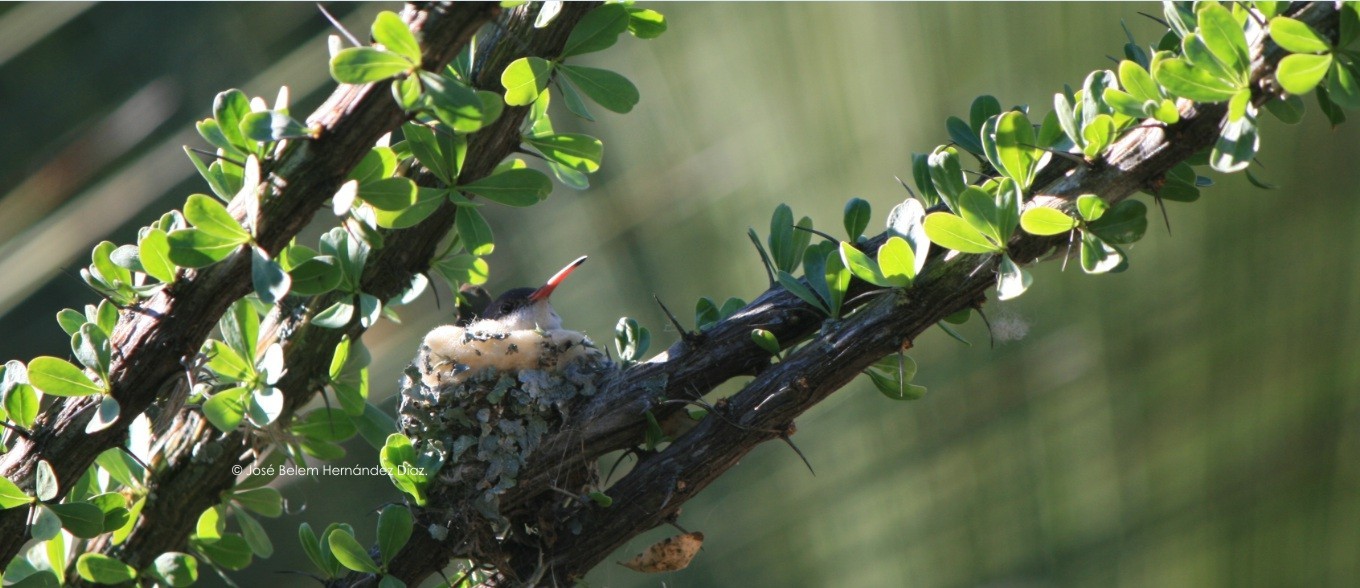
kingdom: Animalia
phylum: Chordata
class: Aves
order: Apodiformes
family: Trochilidae
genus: Leucolia
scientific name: Leucolia violiceps
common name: Violet-crowned hummingbird
